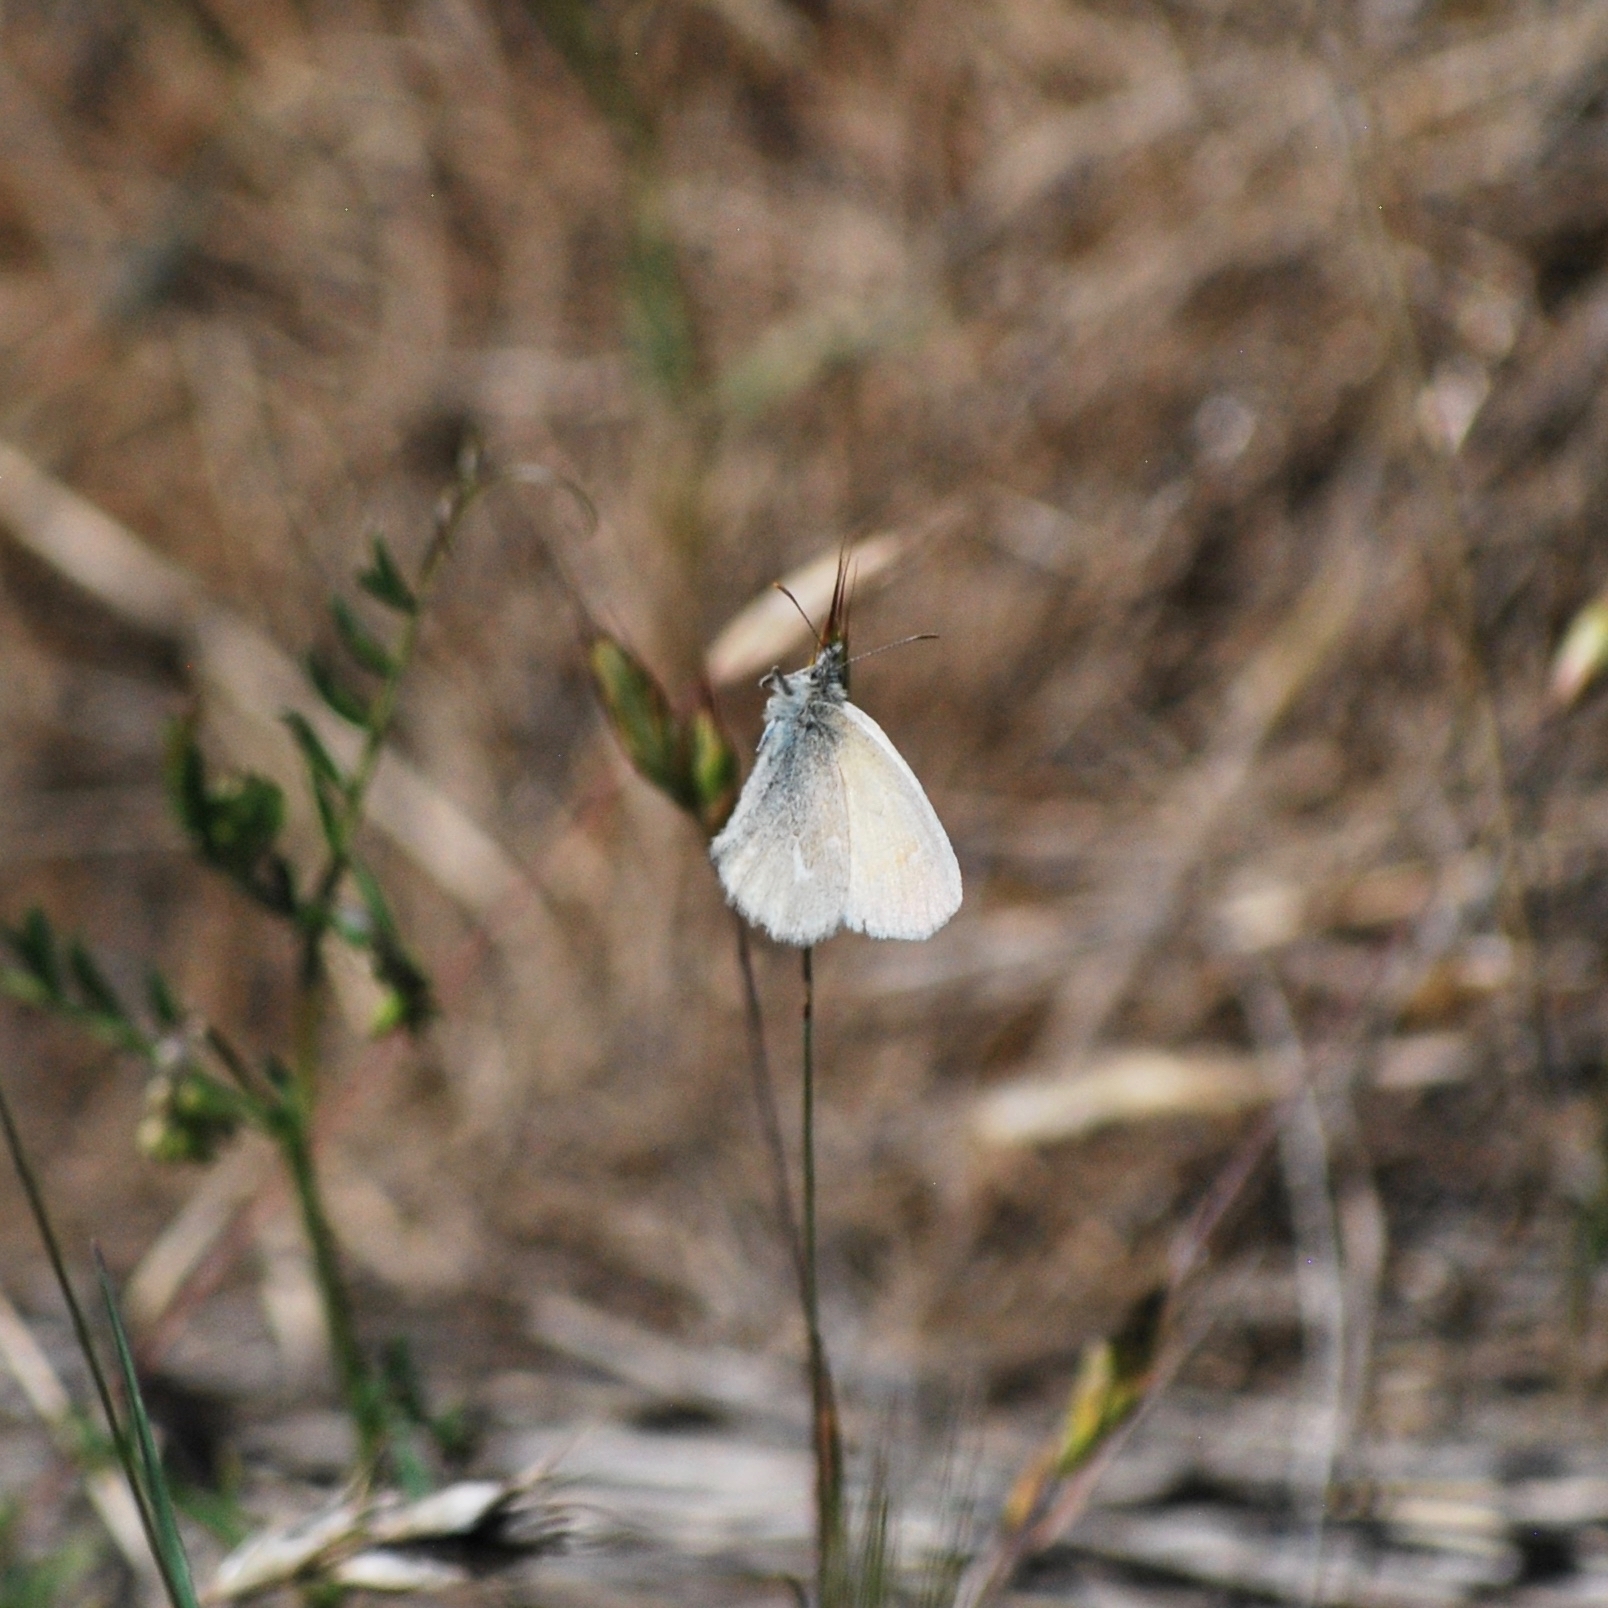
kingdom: Animalia
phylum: Arthropoda
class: Insecta
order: Lepidoptera
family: Nymphalidae
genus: Coenonympha
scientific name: Coenonympha california
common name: Common ringlet
